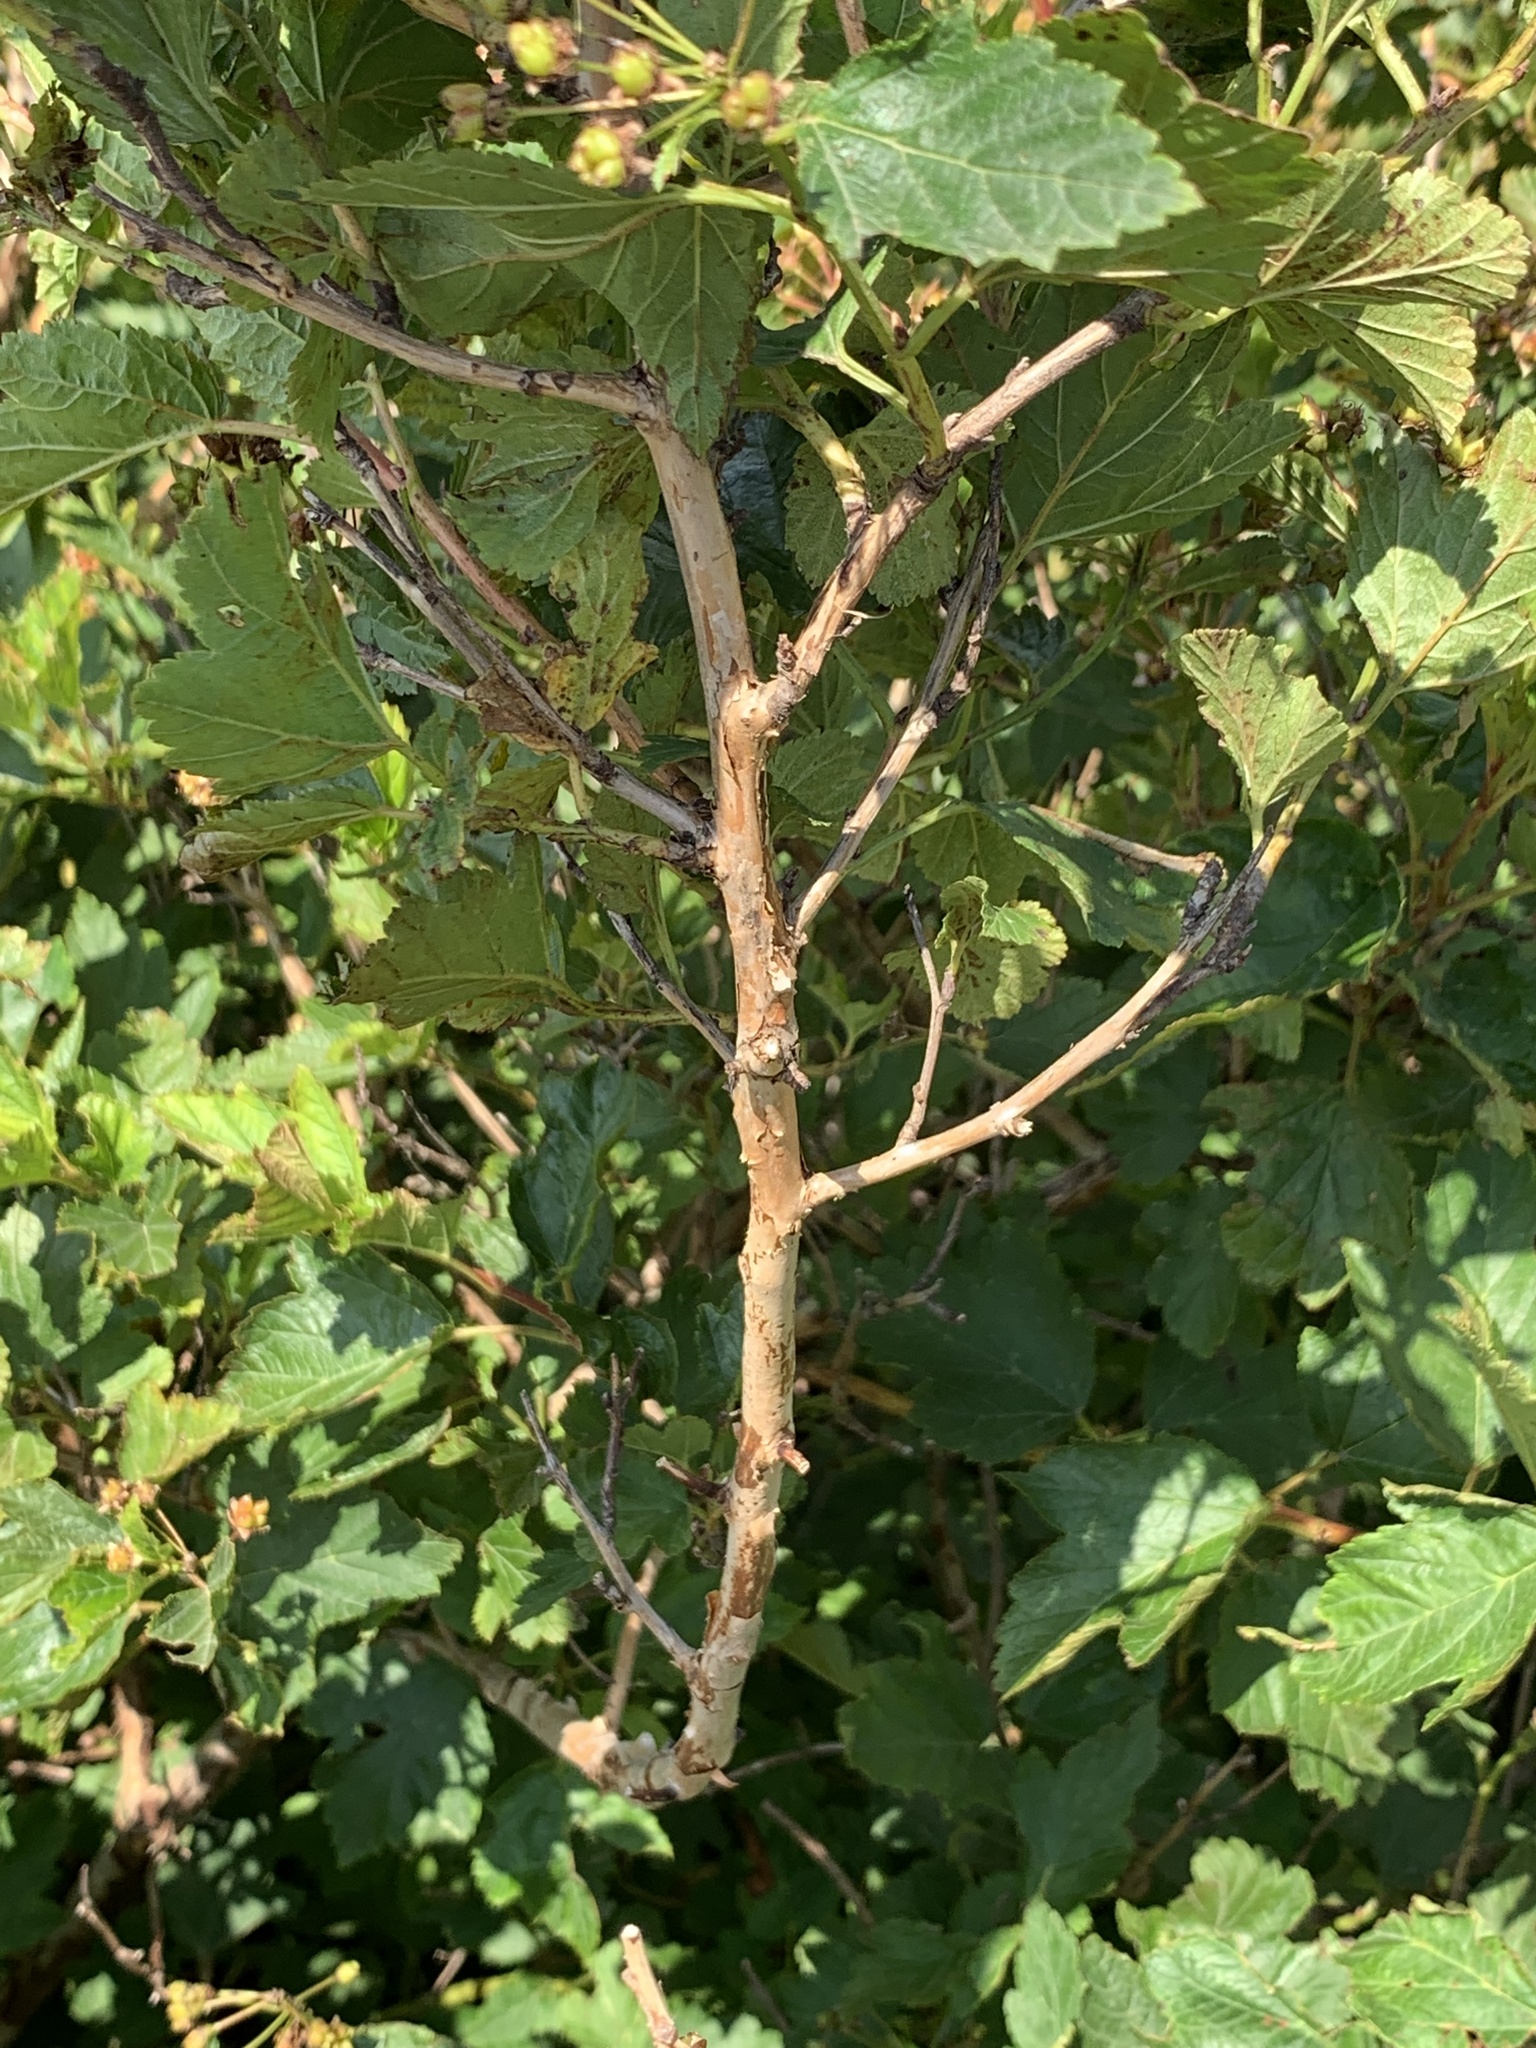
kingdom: Plantae
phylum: Tracheophyta
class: Magnoliopsida
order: Rosales
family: Rosaceae
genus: Physocarpus
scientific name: Physocarpus opulifolius
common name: Ninebark
